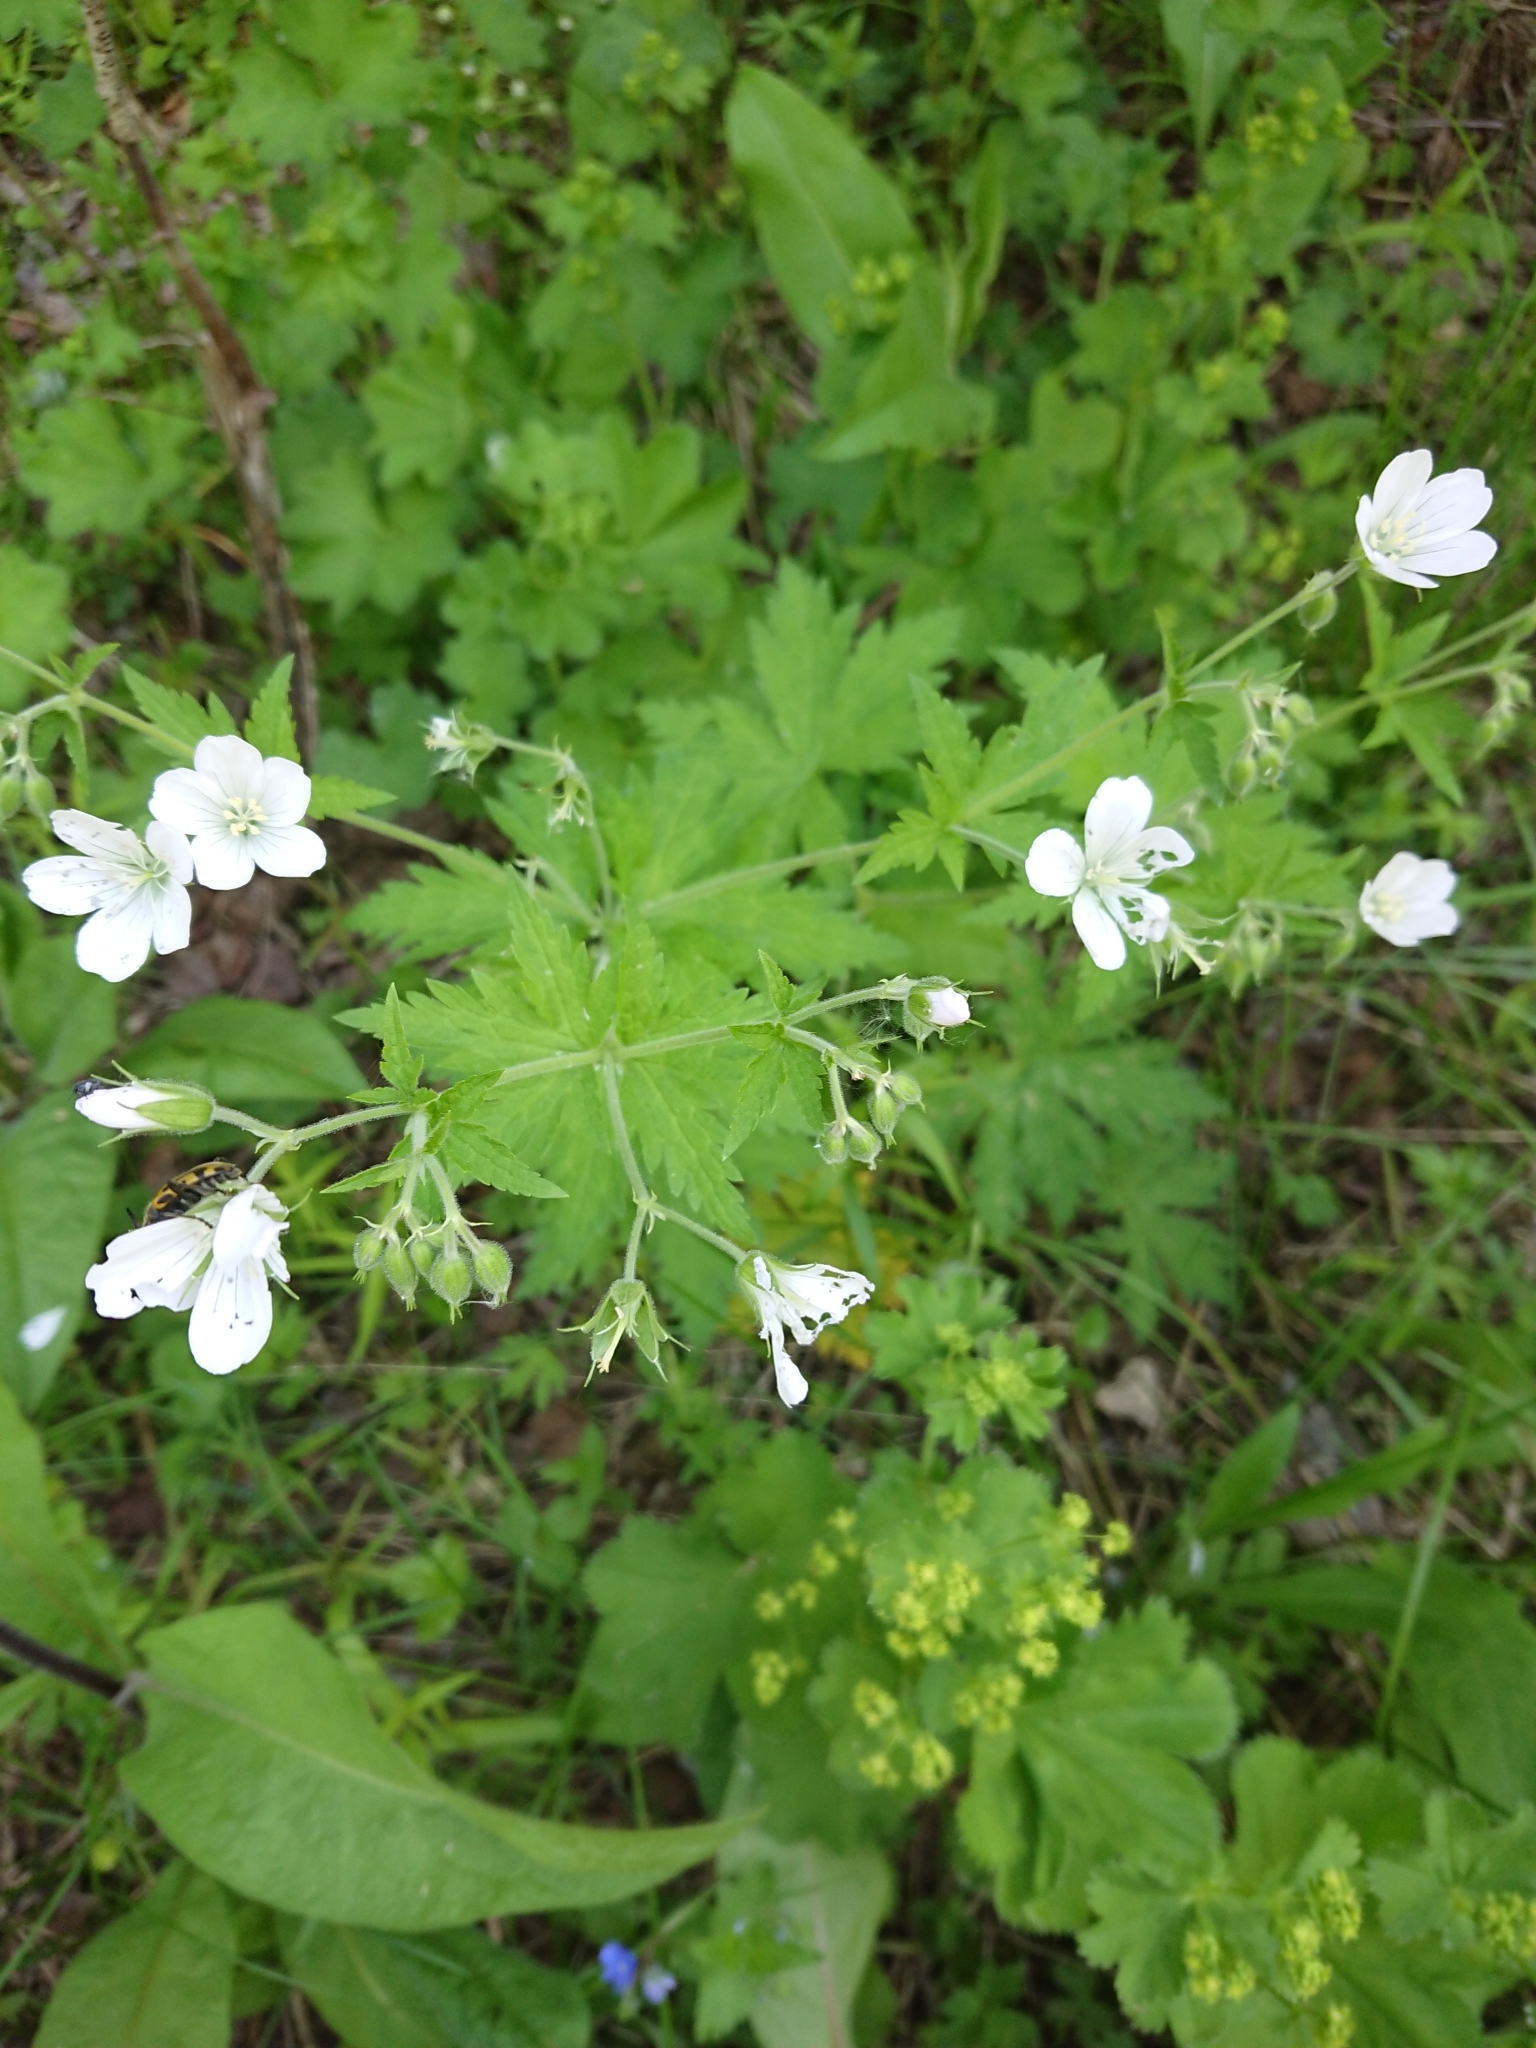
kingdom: Plantae
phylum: Tracheophyta
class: Magnoliopsida
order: Geraniales
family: Geraniaceae
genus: Geranium
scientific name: Geranium sylvaticum
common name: Wood crane's-bill
